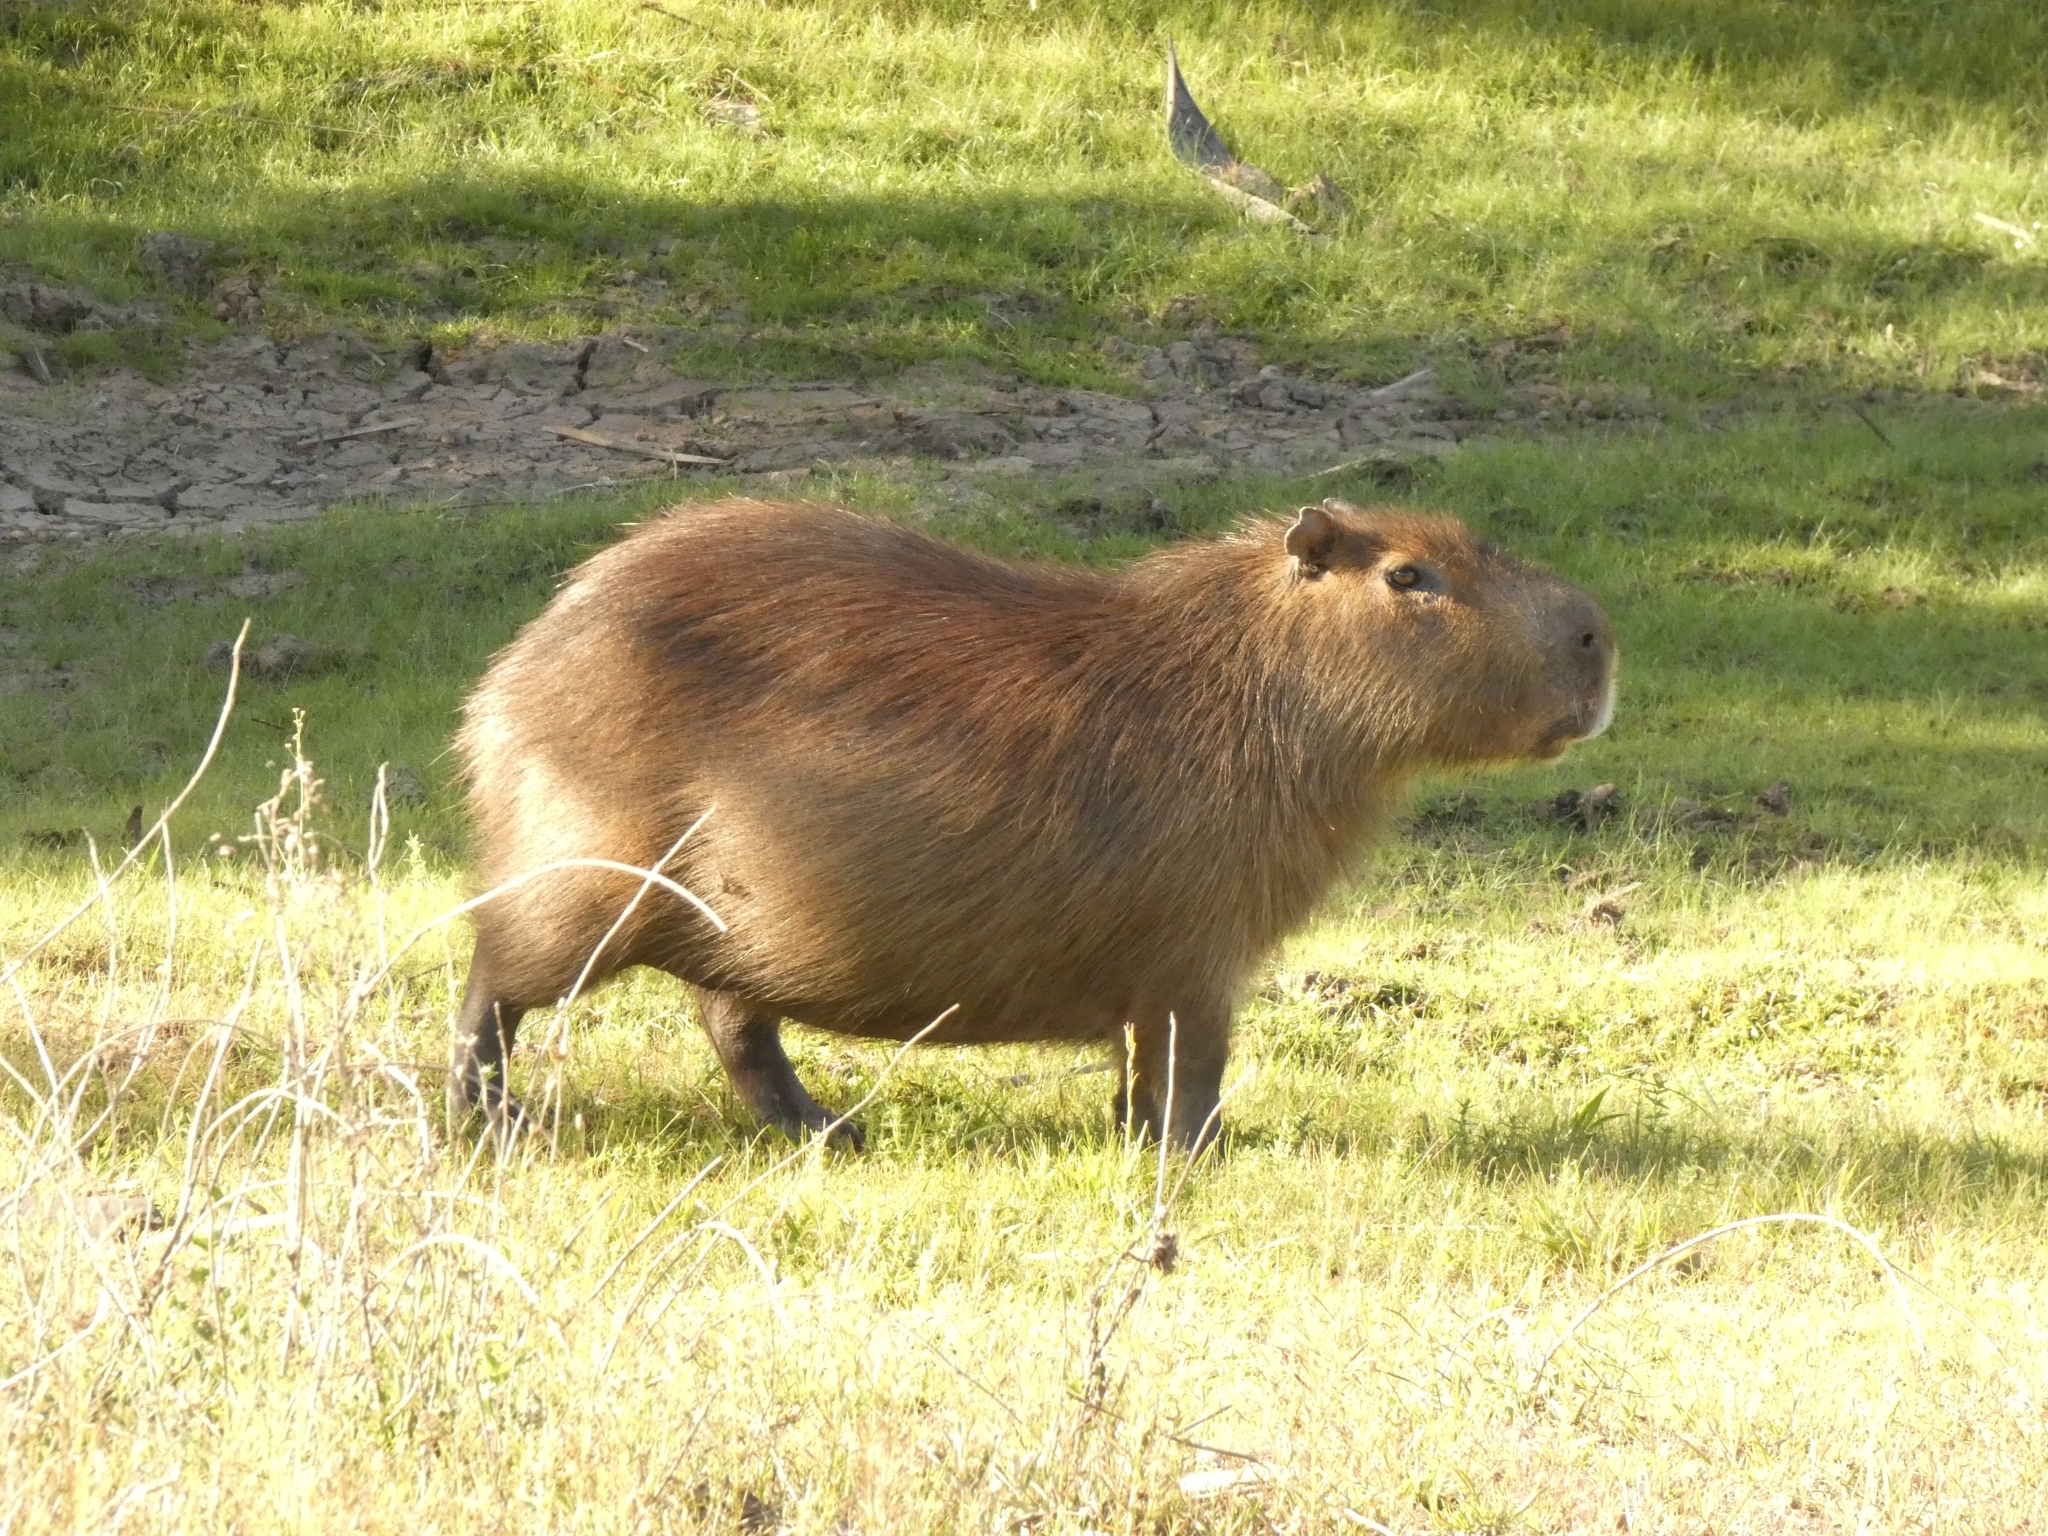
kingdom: Animalia
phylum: Chordata
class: Mammalia
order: Rodentia
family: Caviidae
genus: Hydrochoerus
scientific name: Hydrochoerus hydrochaeris
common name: Capybara
